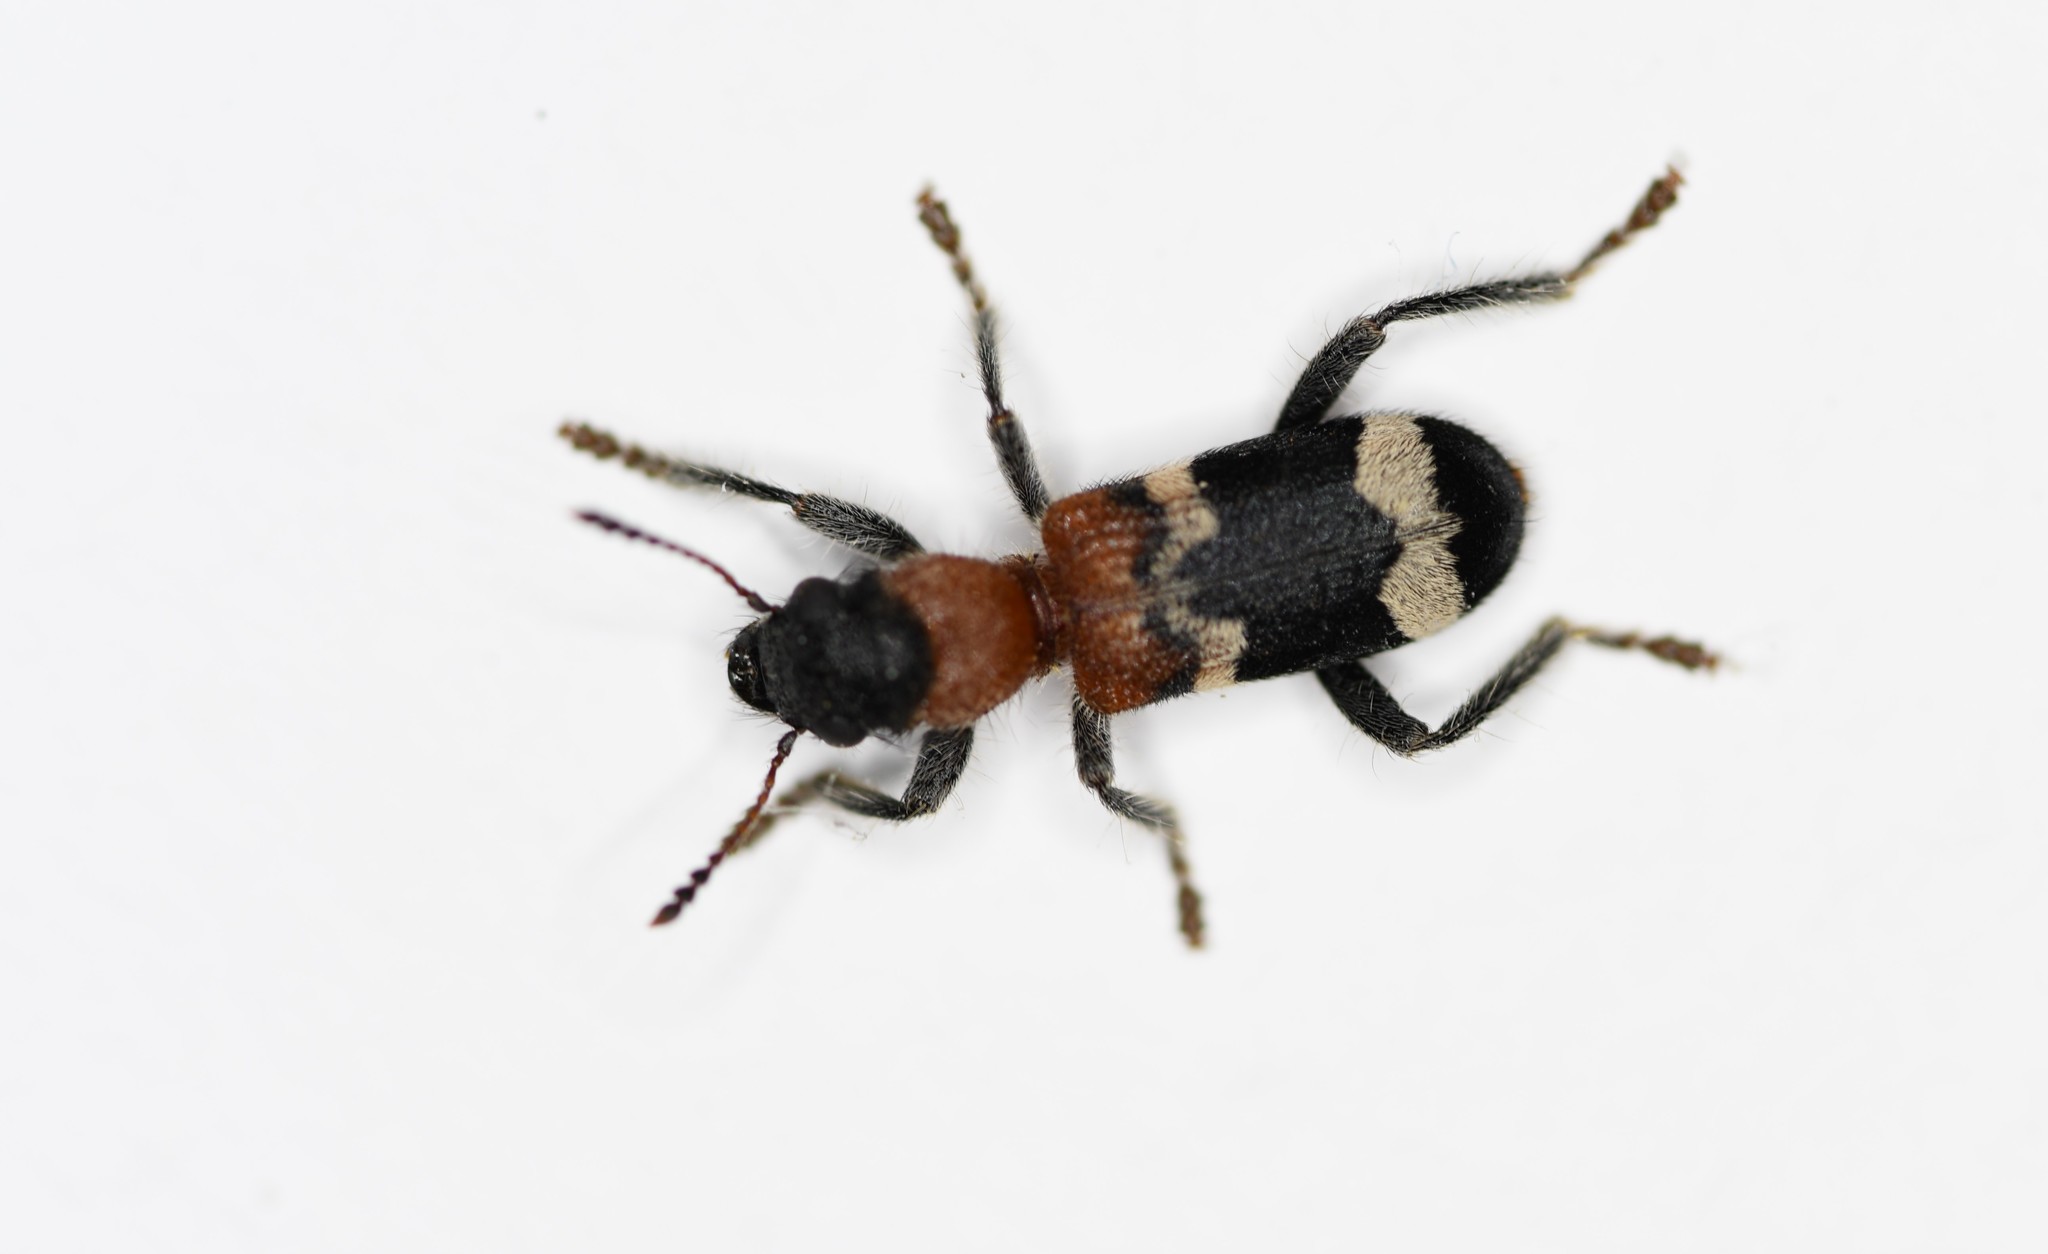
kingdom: Animalia
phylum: Arthropoda
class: Insecta
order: Coleoptera
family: Cleridae
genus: Thanasimus
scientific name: Thanasimus formicarius
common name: Ant beetle
